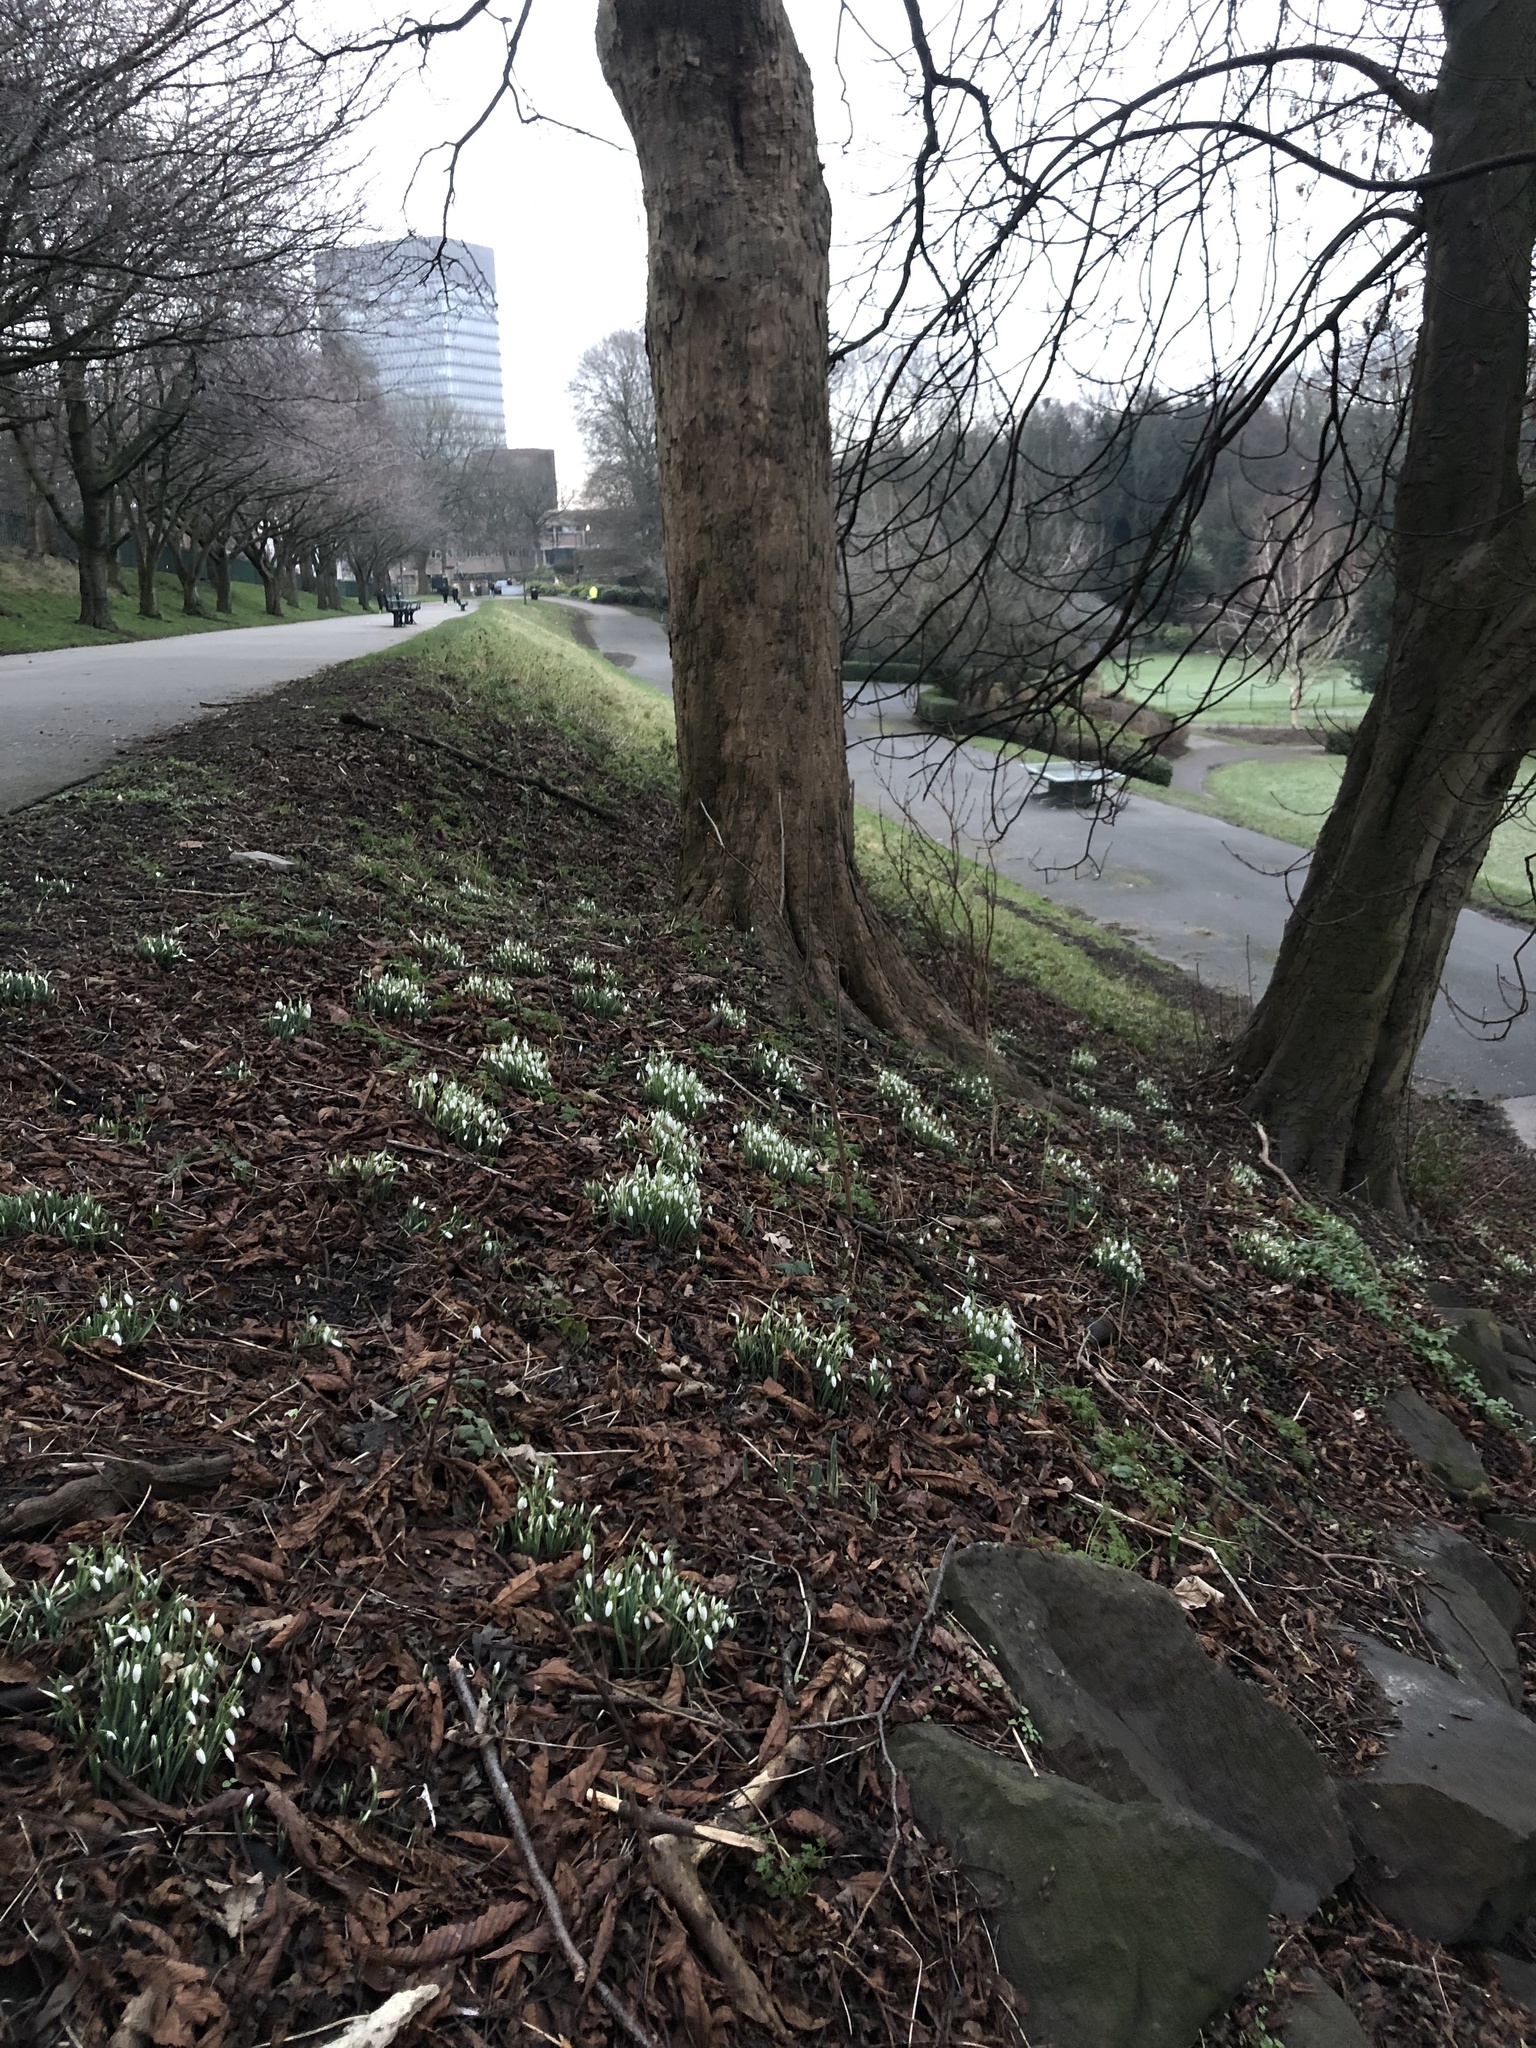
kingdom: Plantae
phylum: Tracheophyta
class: Liliopsida
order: Asparagales
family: Amaryllidaceae
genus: Galanthus
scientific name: Galanthus nivalis
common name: Snowdrop
